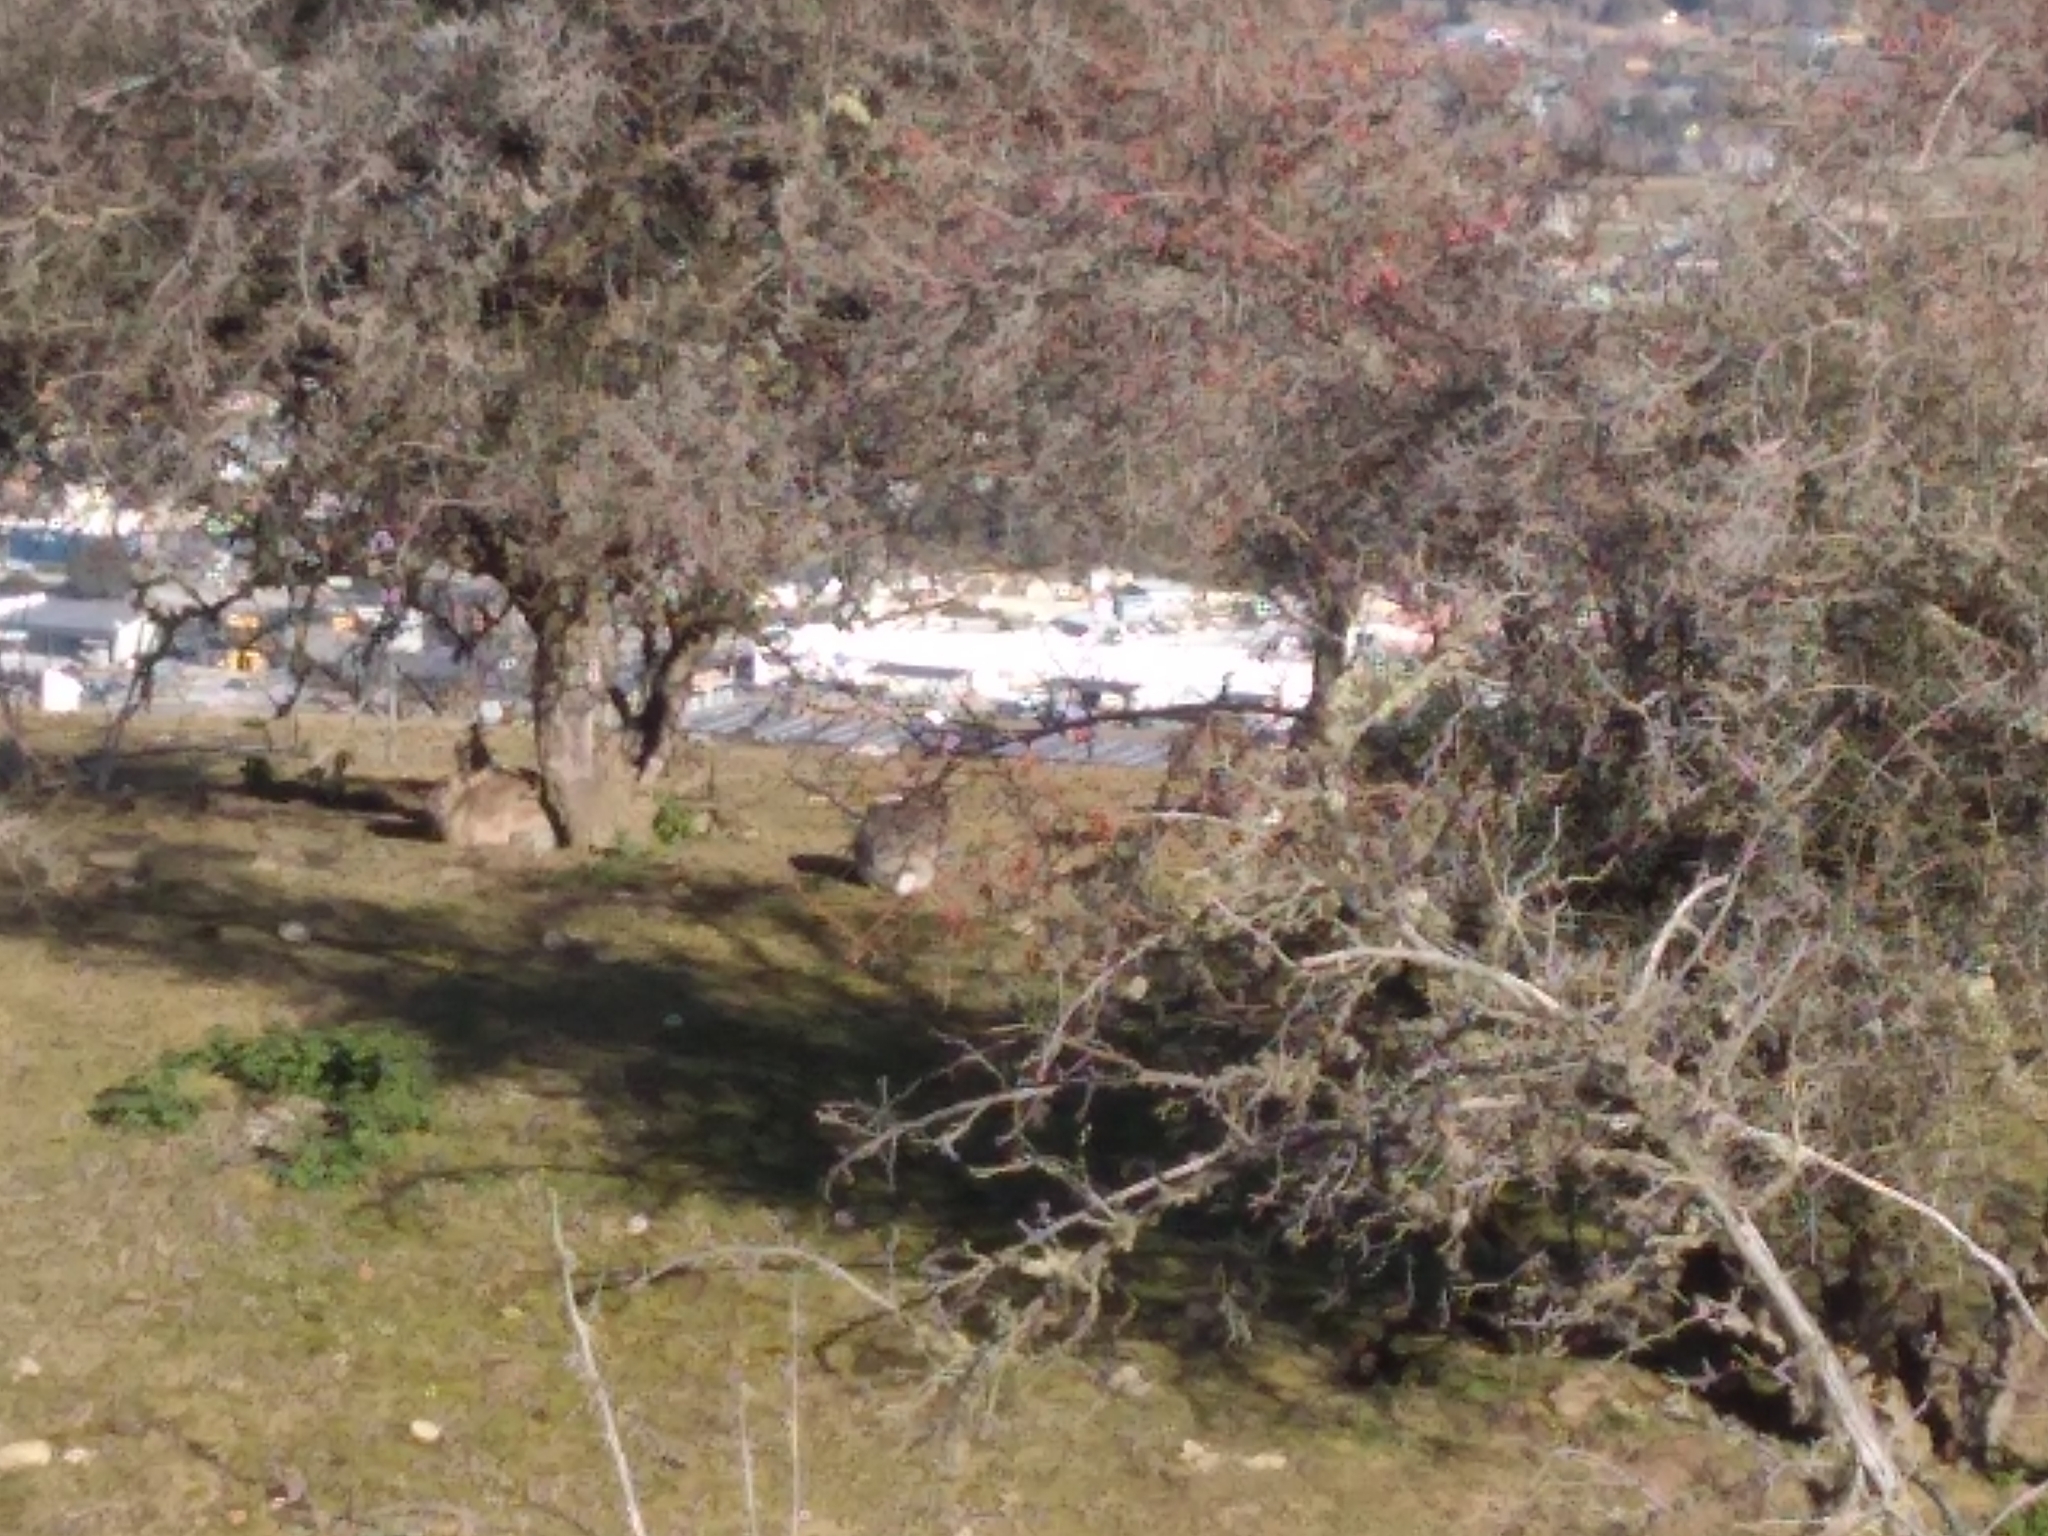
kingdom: Animalia
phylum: Chordata
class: Mammalia
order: Lagomorpha
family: Leporidae
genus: Oryctolagus
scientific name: Oryctolagus cuniculus
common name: European rabbit
